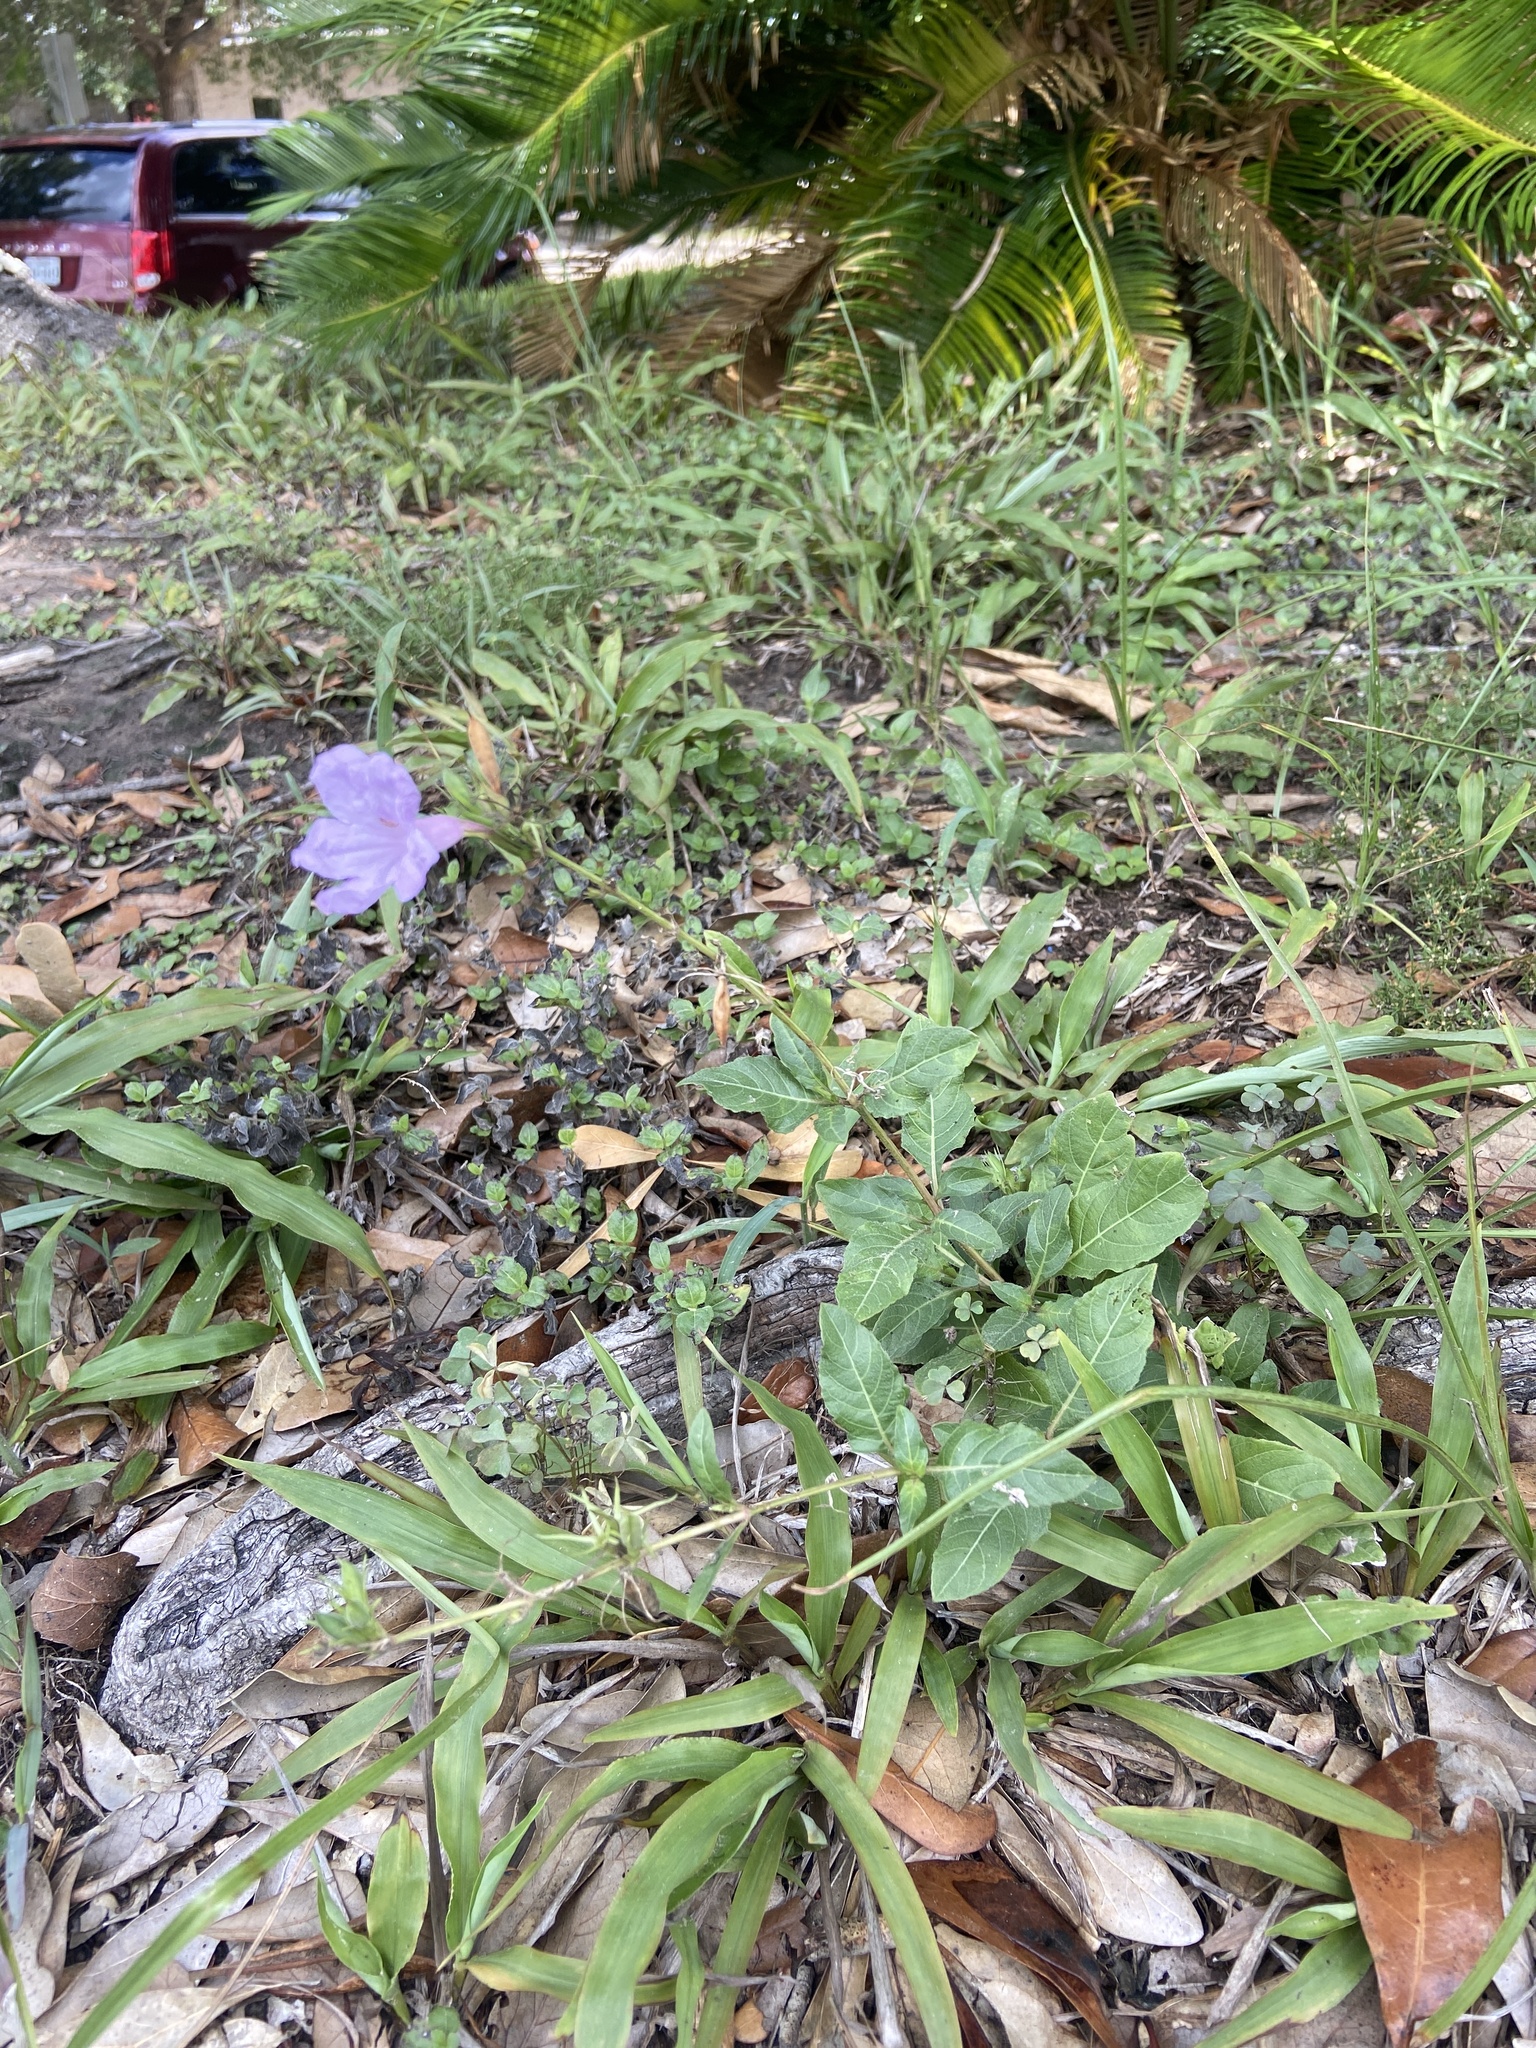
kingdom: Plantae
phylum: Tracheophyta
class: Magnoliopsida
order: Lamiales
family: Acanthaceae
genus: Ruellia
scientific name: Ruellia simplex
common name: Softseed wild petunia
